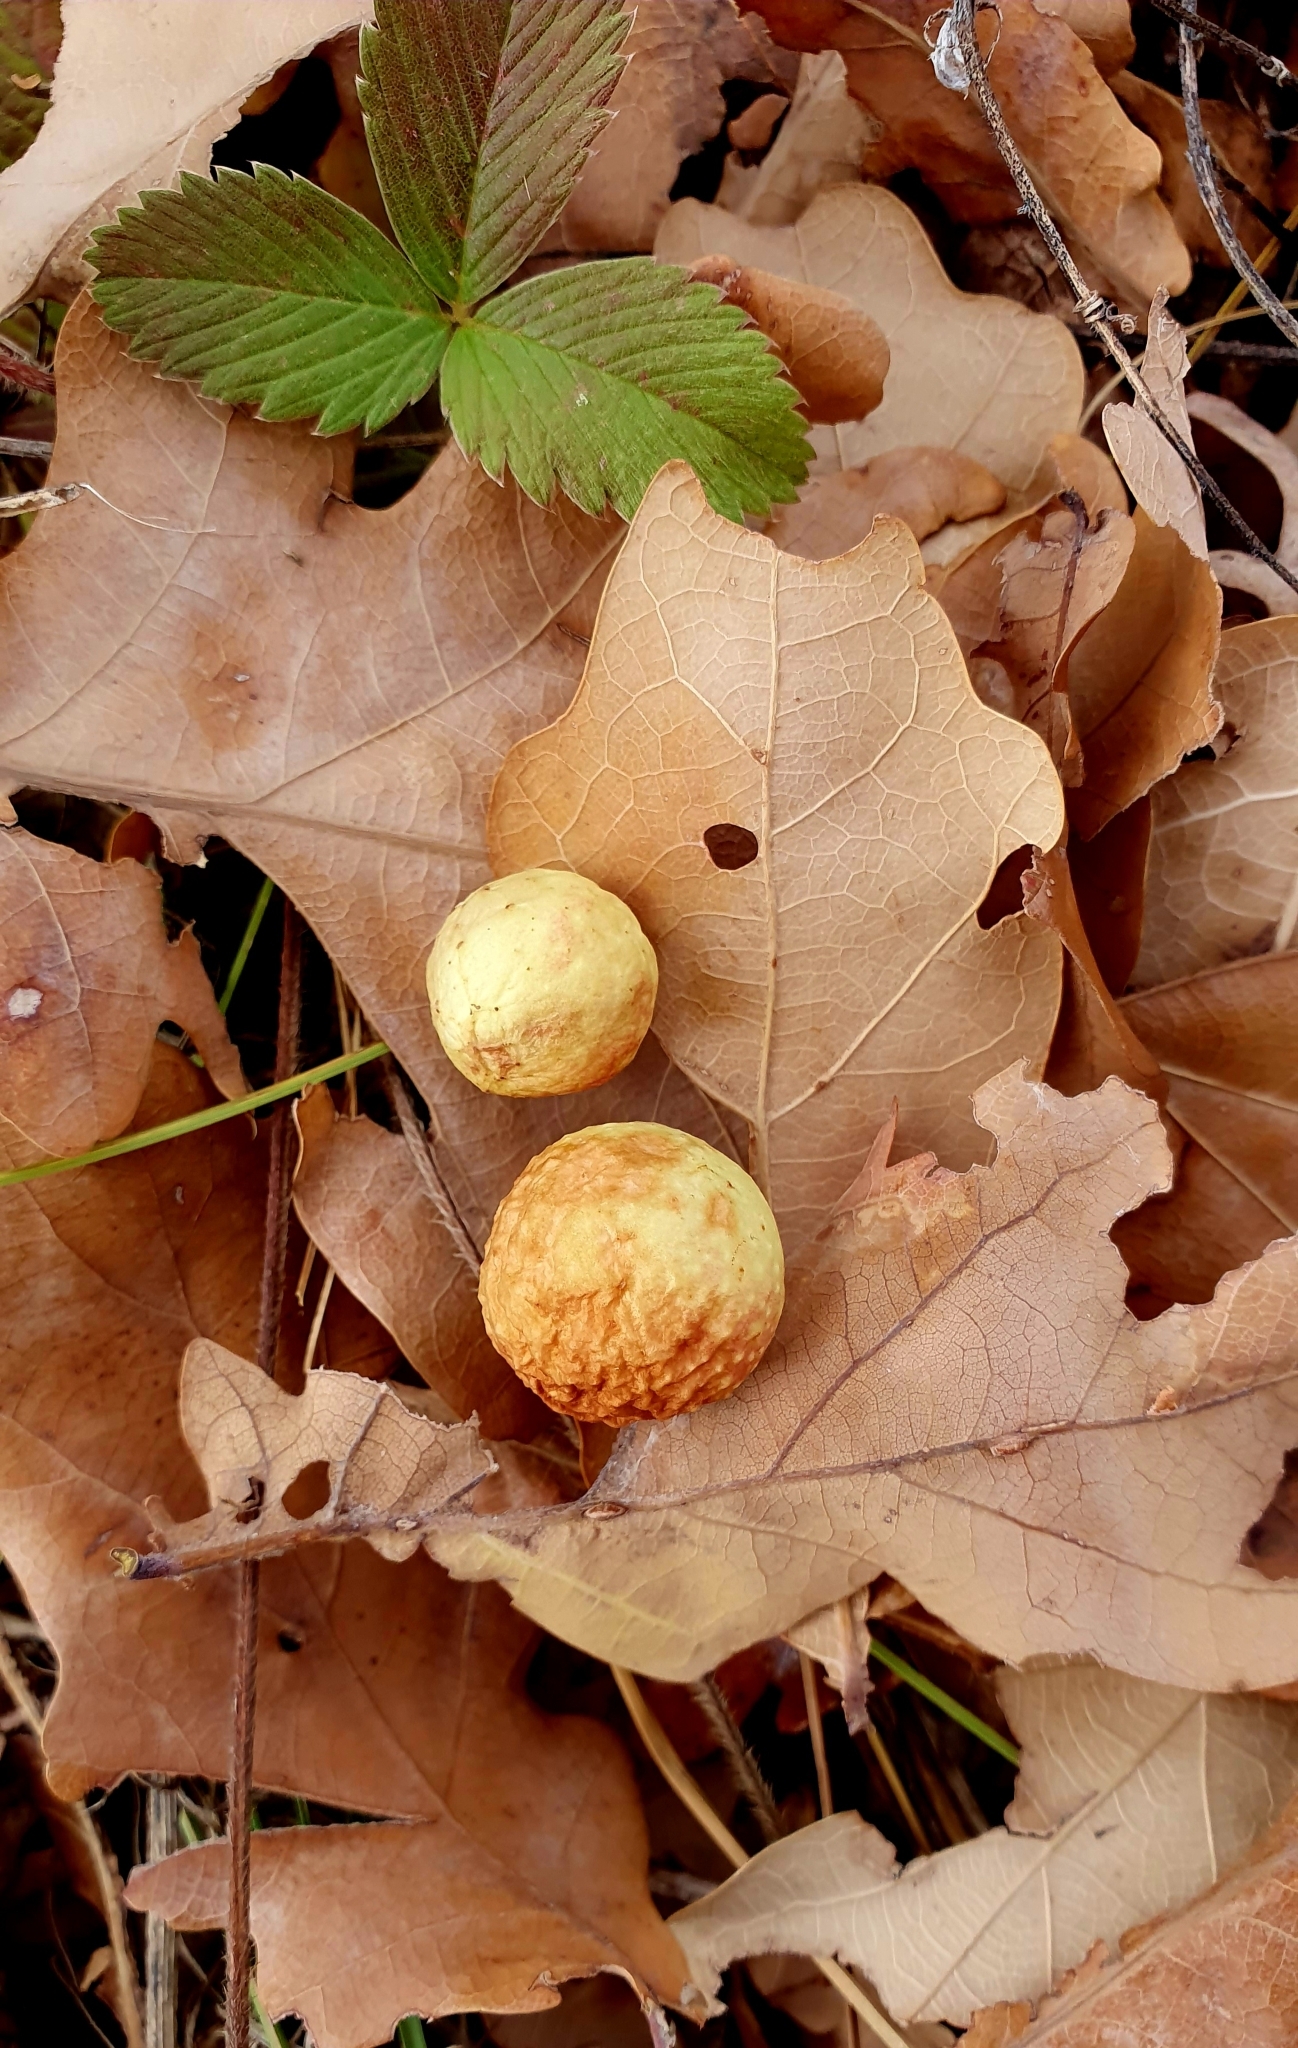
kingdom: Animalia
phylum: Arthropoda
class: Insecta
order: Hymenoptera
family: Cynipidae
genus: Cynips
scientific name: Cynips quercusfolii
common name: Cherry gall
